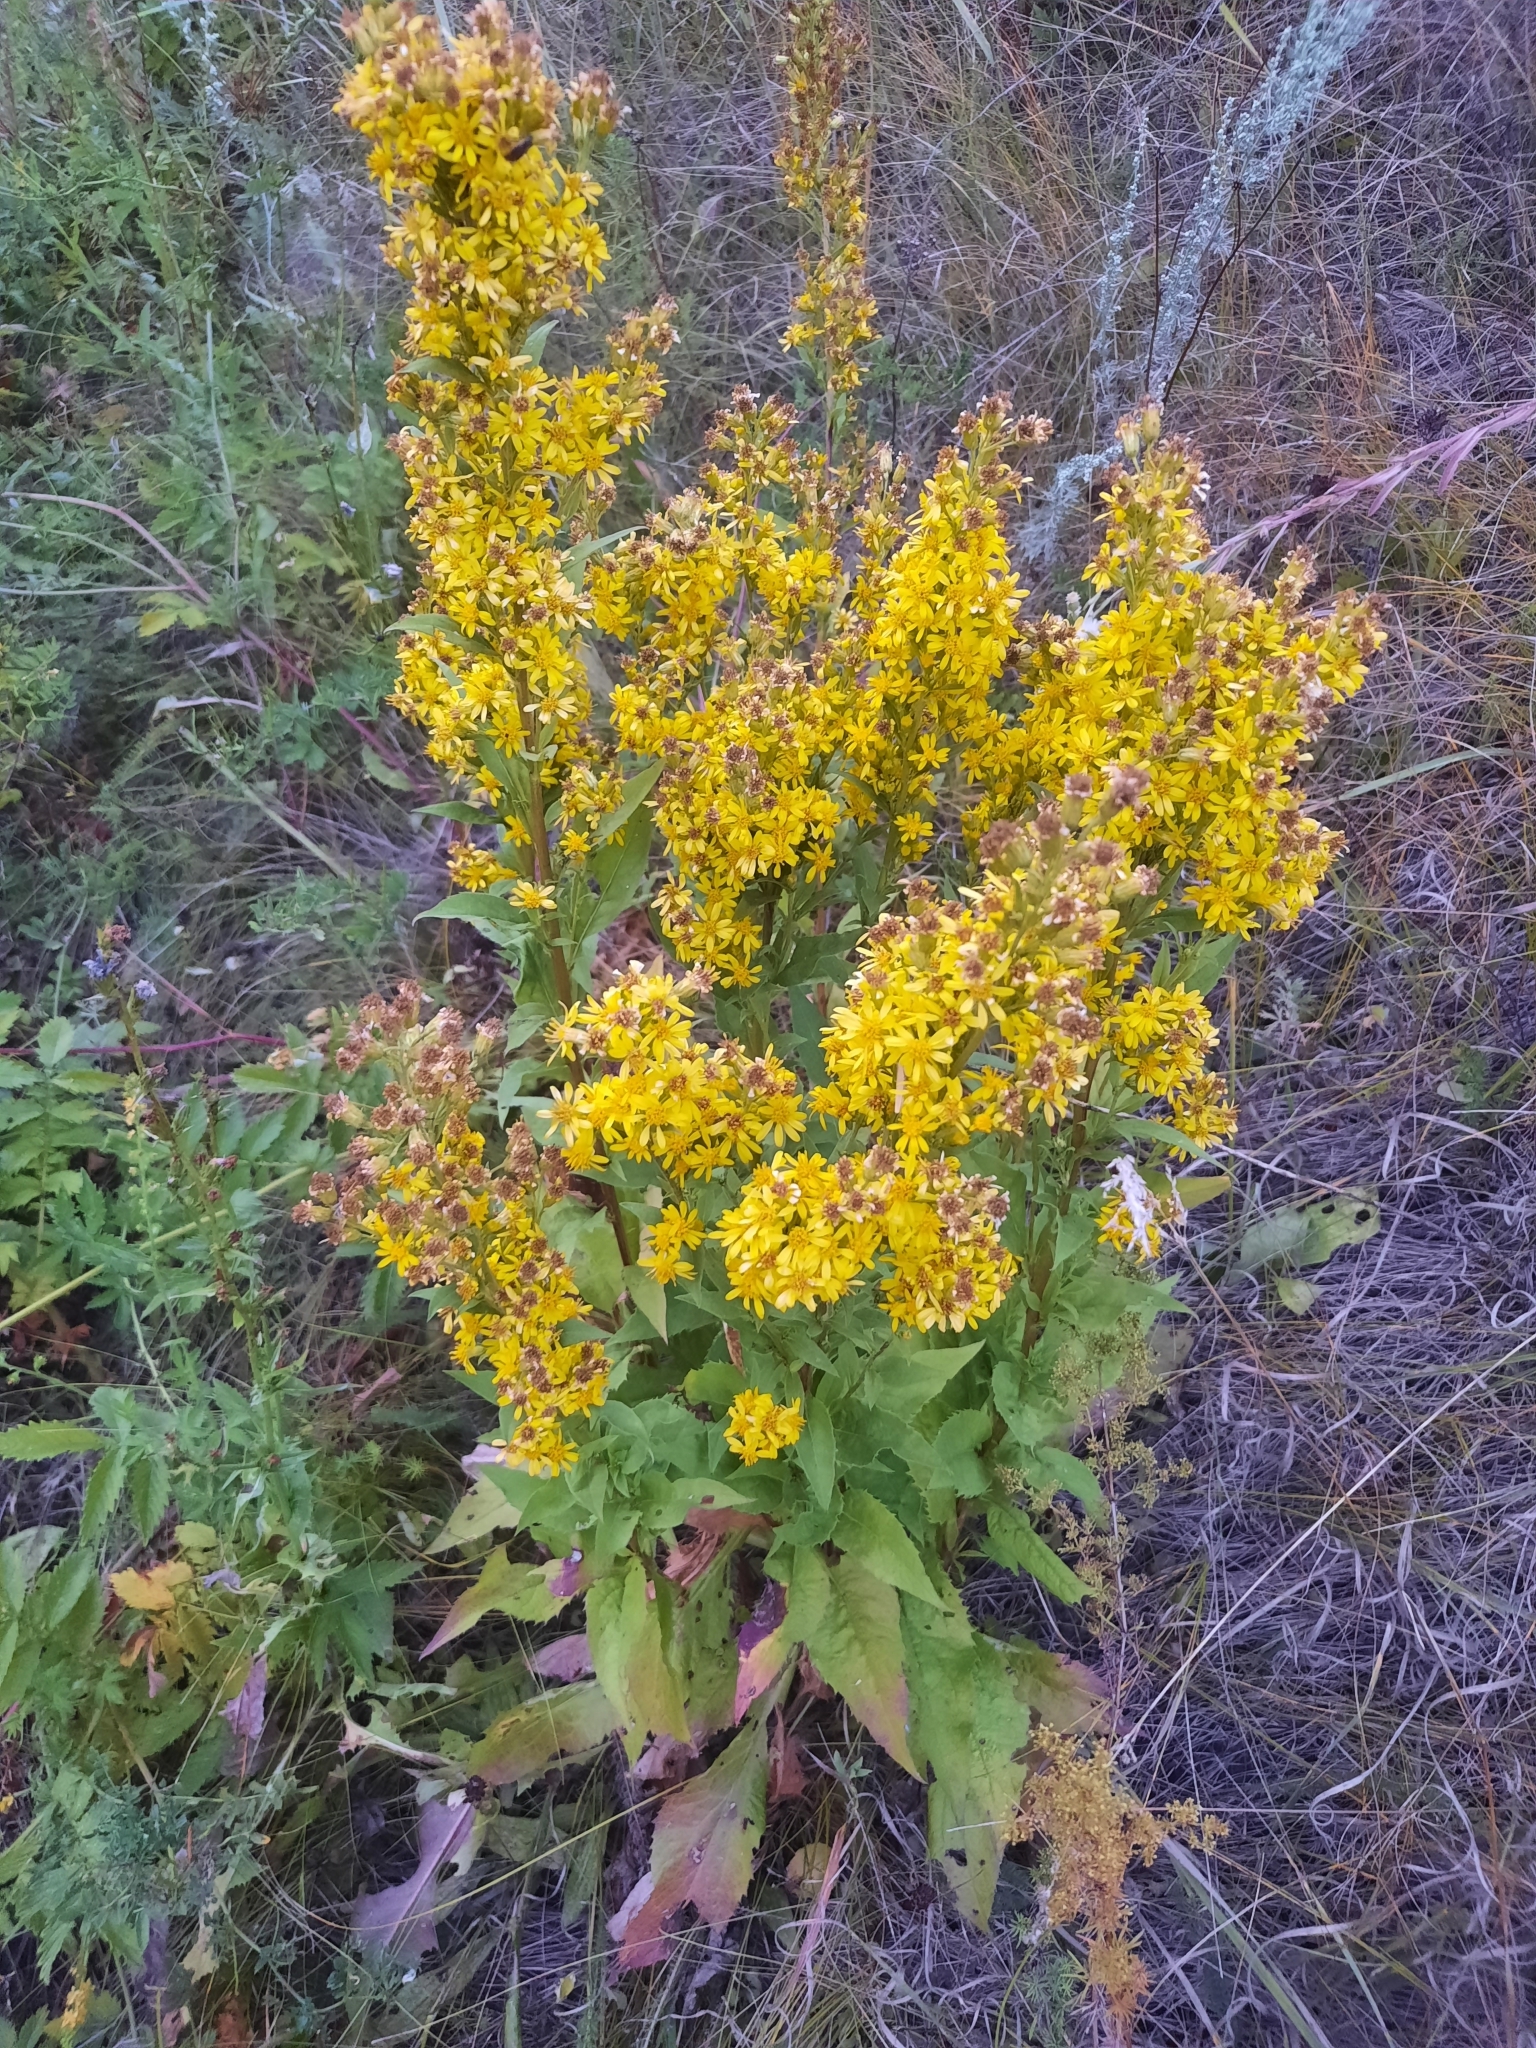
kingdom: Plantae
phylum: Tracheophyta
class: Magnoliopsida
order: Asterales
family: Asteraceae
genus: Solidago
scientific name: Solidago virgaurea
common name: Goldenrod
